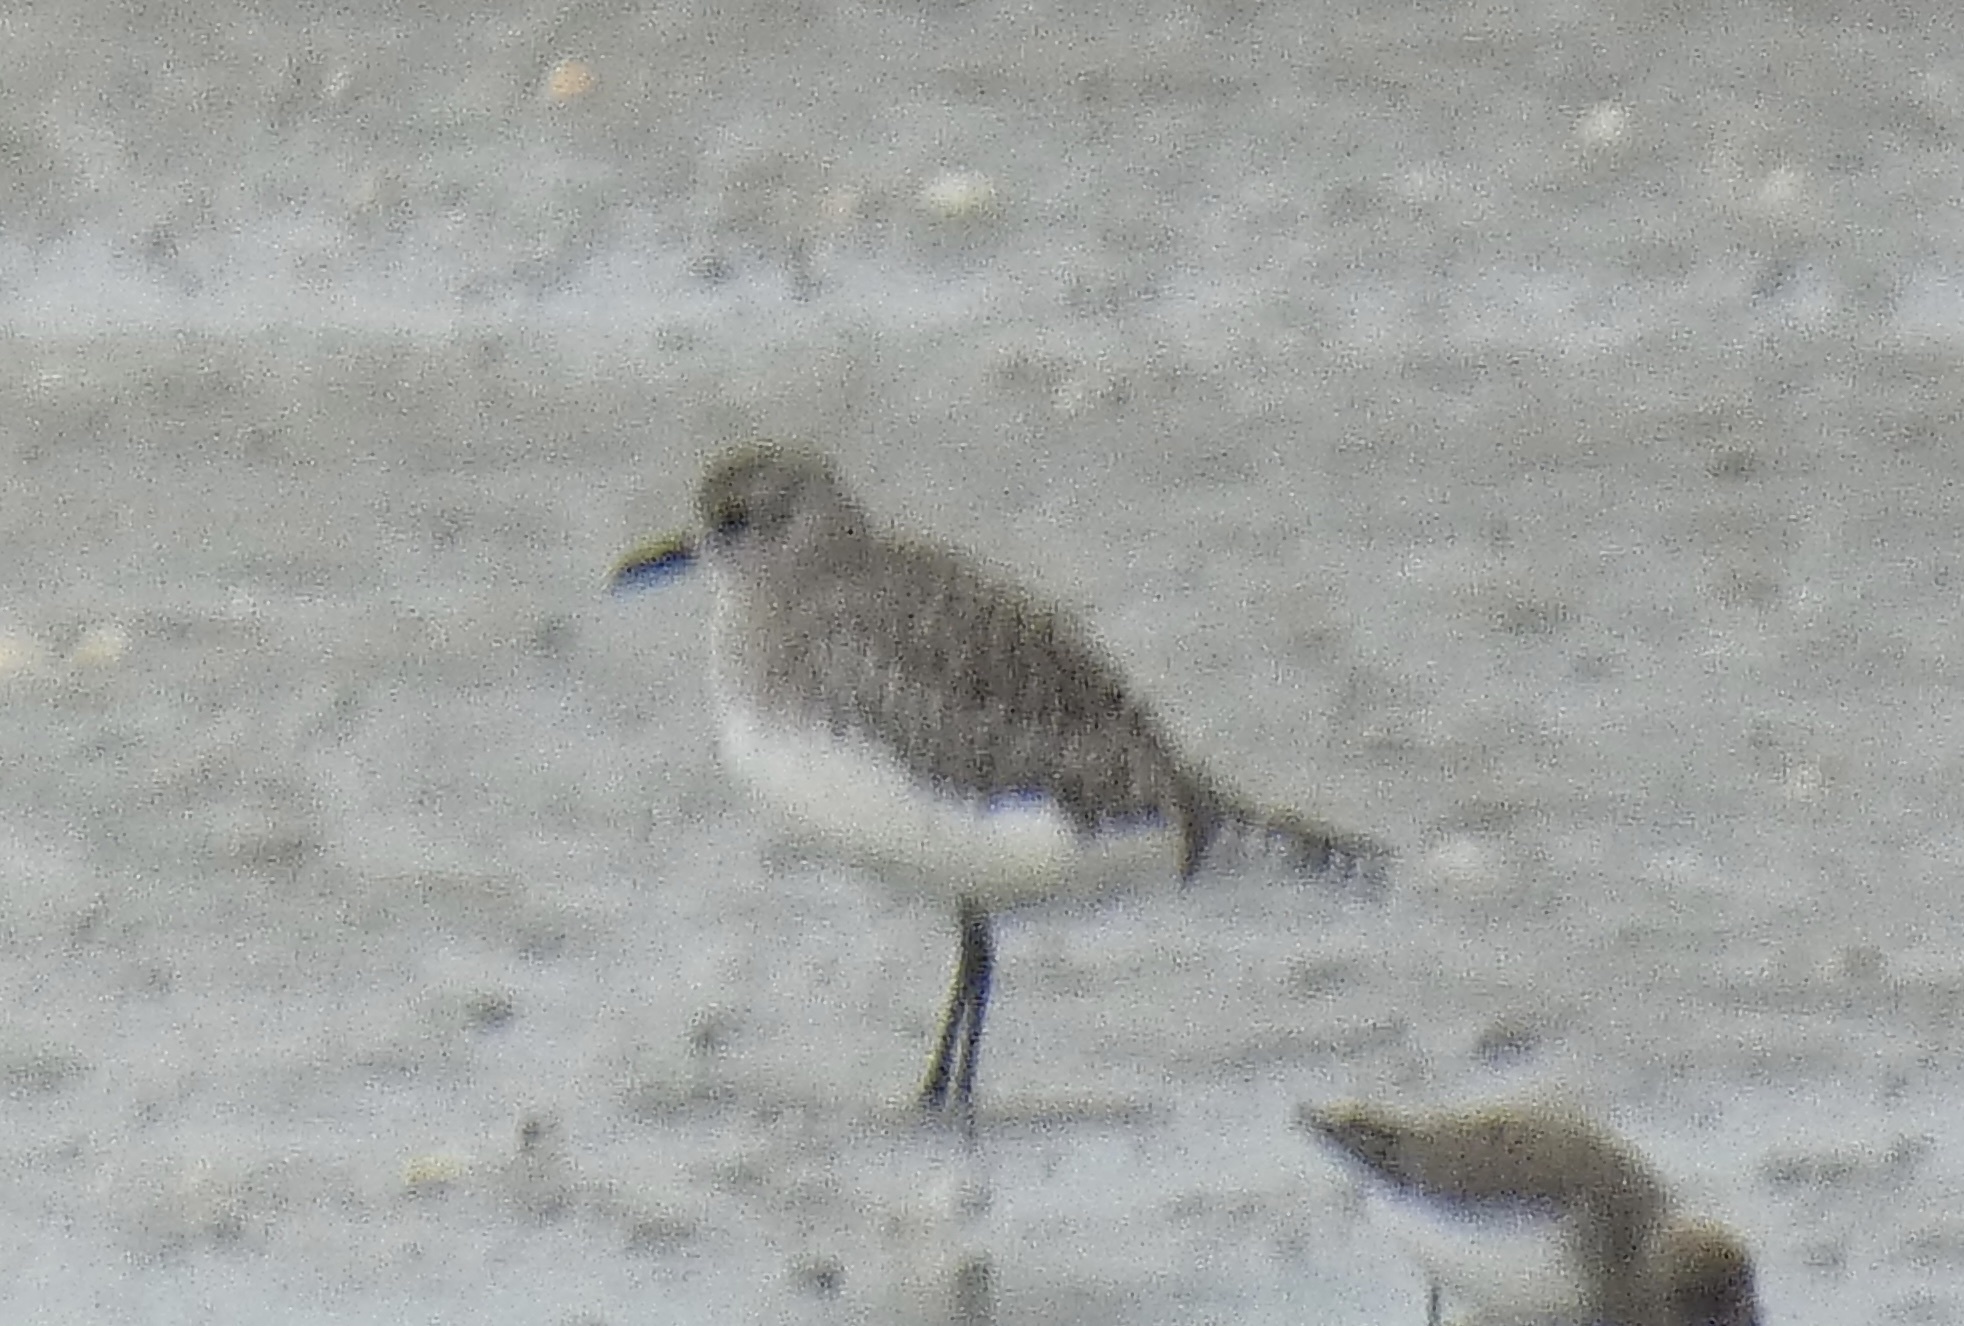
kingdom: Animalia
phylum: Chordata
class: Aves
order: Charadriiformes
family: Charadriidae
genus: Pluvialis
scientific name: Pluvialis squatarola
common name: Grey plover
